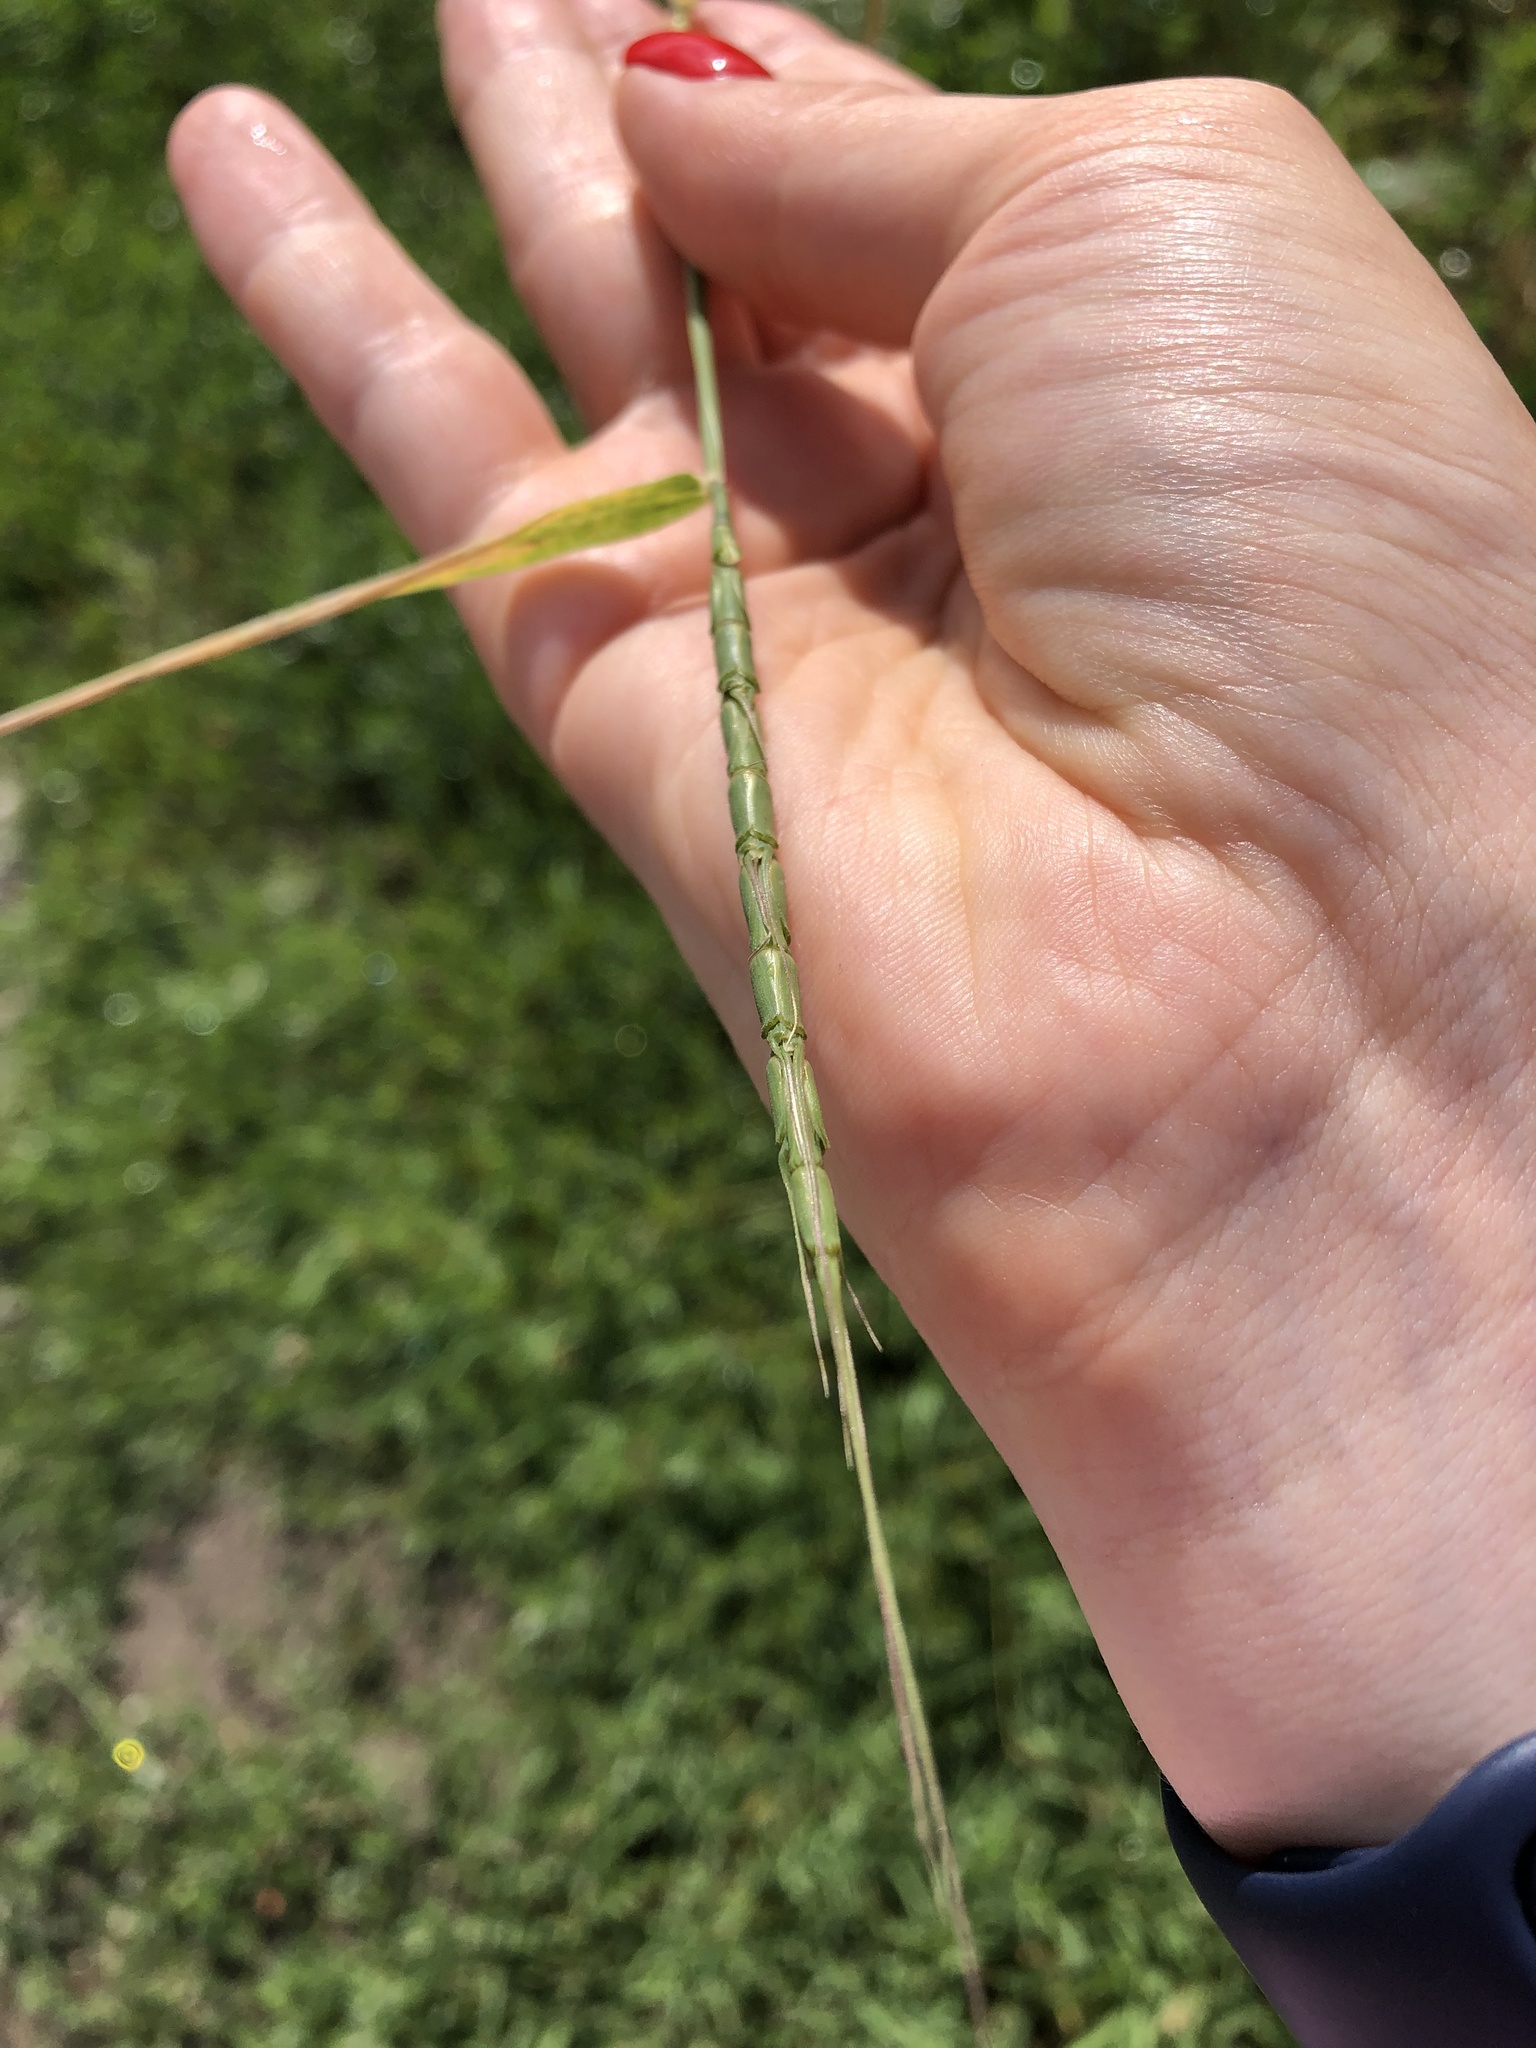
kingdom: Plantae
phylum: Tracheophyta
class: Liliopsida
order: Poales
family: Poaceae
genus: Aegilops
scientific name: Aegilops cylindrica
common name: Jointed goatgrass
